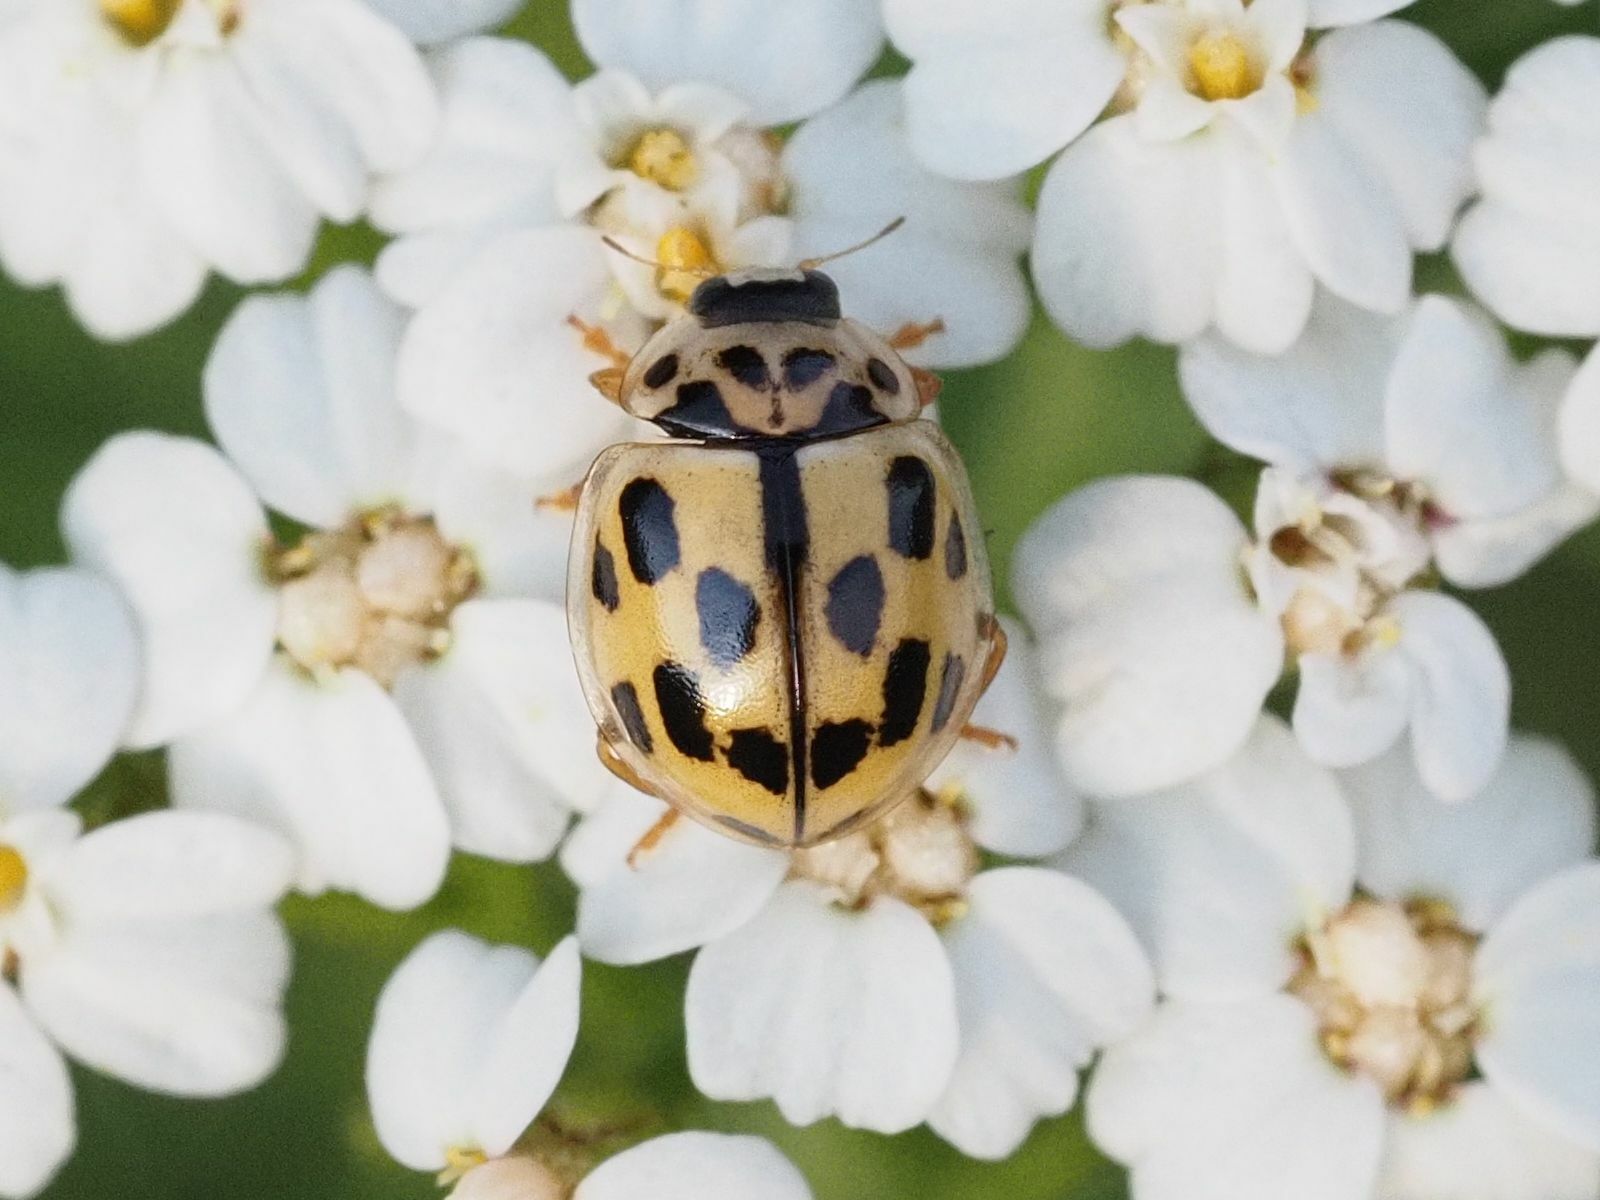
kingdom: Animalia
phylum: Arthropoda
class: Insecta
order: Coleoptera
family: Coccinellidae
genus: Propylaea
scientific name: Propylaea quatuordecimpunctata
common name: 14-spotted ladybird beetle
